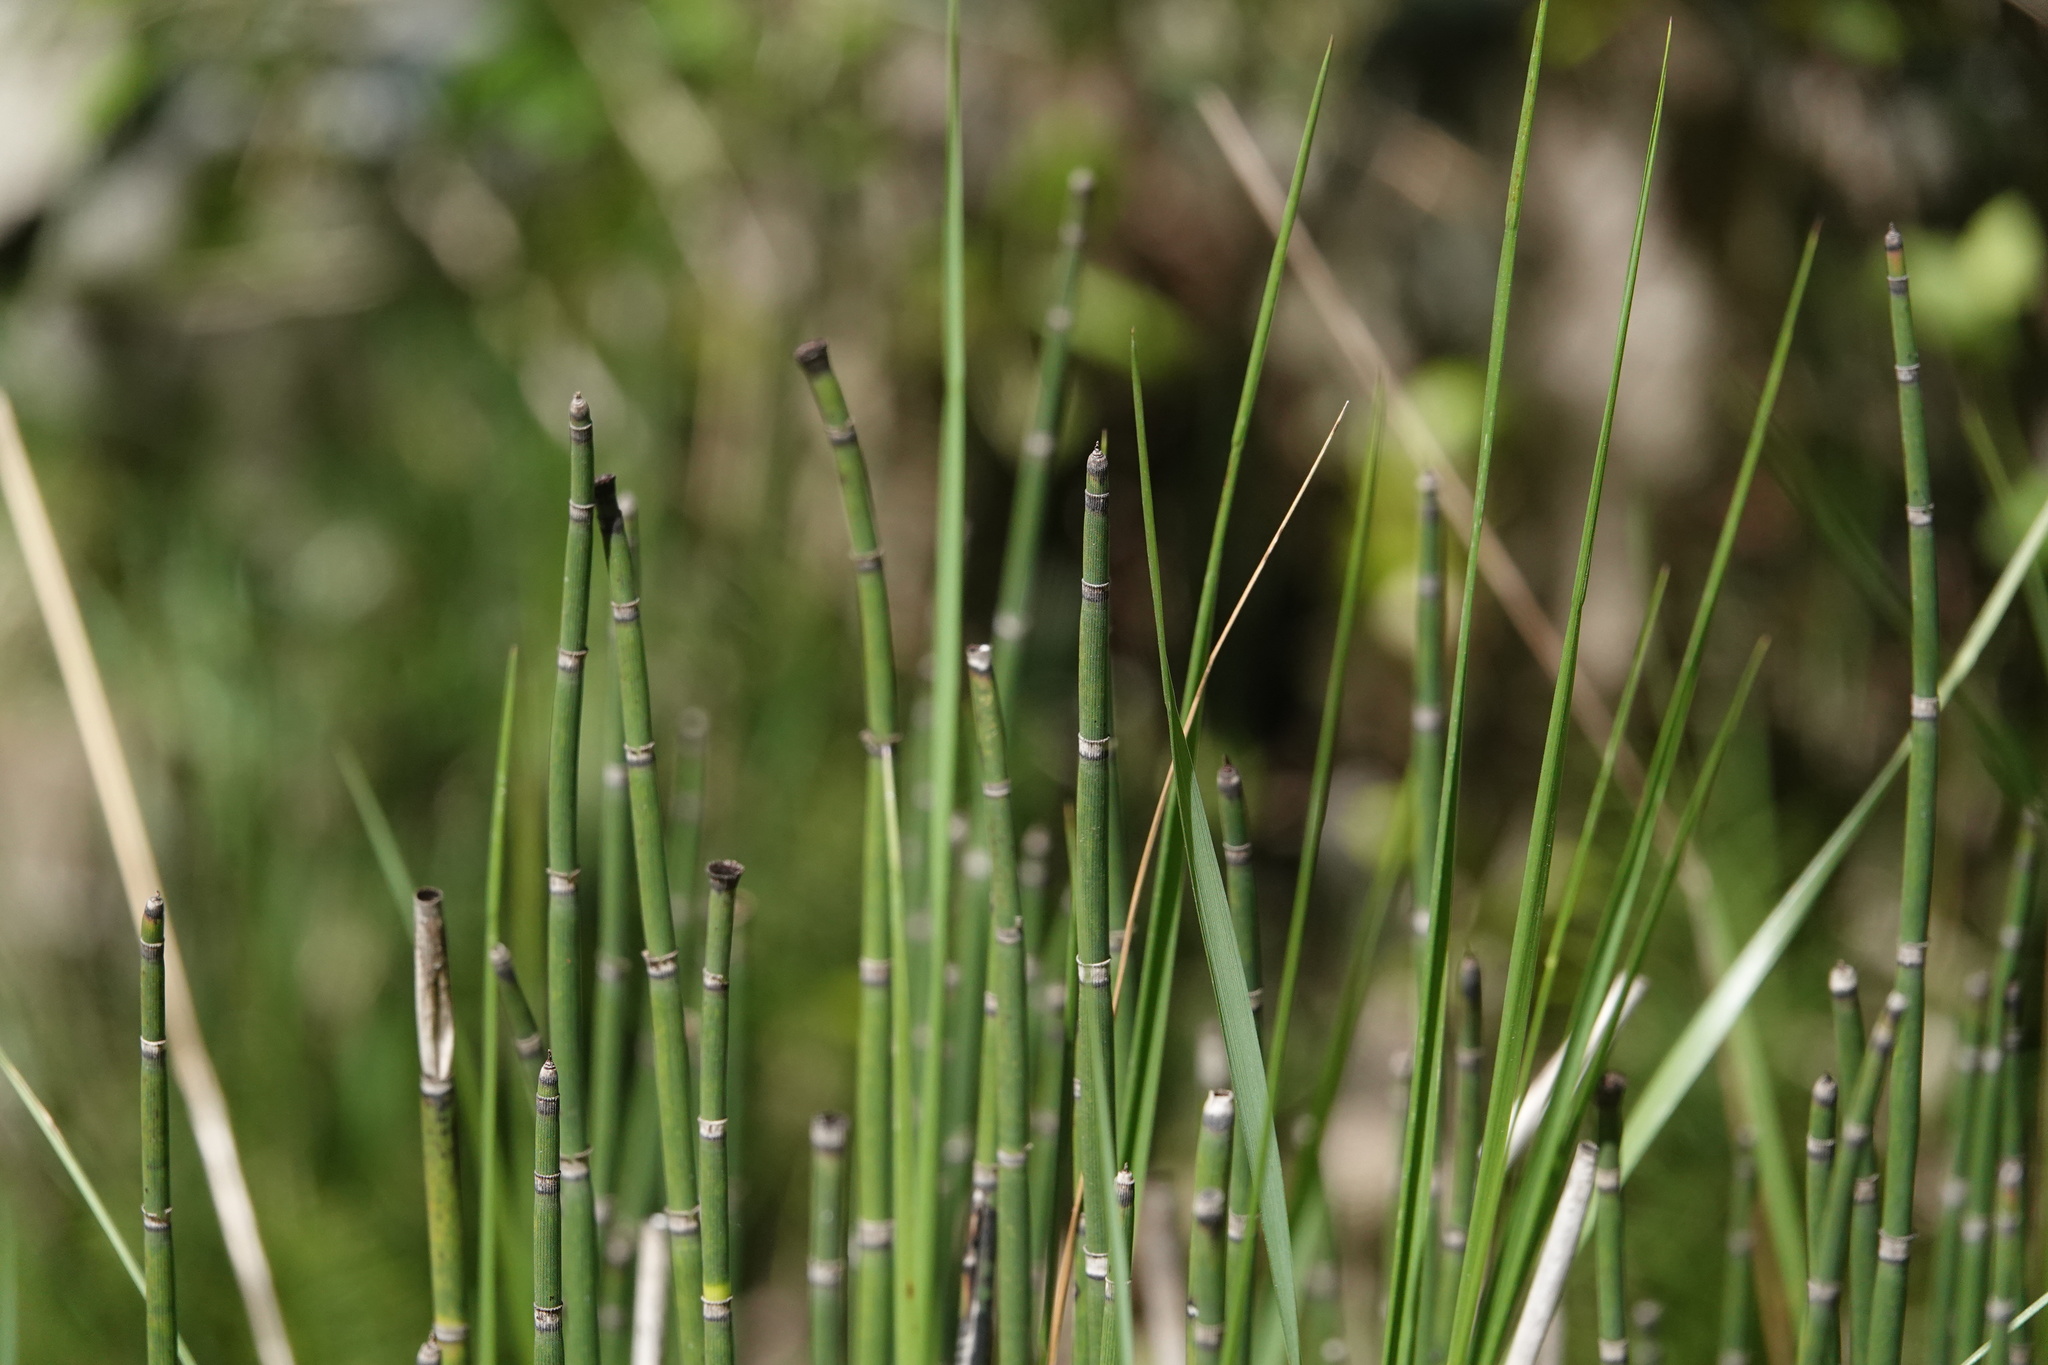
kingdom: Plantae
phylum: Tracheophyta
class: Polypodiopsida
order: Equisetales
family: Equisetaceae
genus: Equisetum
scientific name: Equisetum hyemale
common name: Rough horsetail
